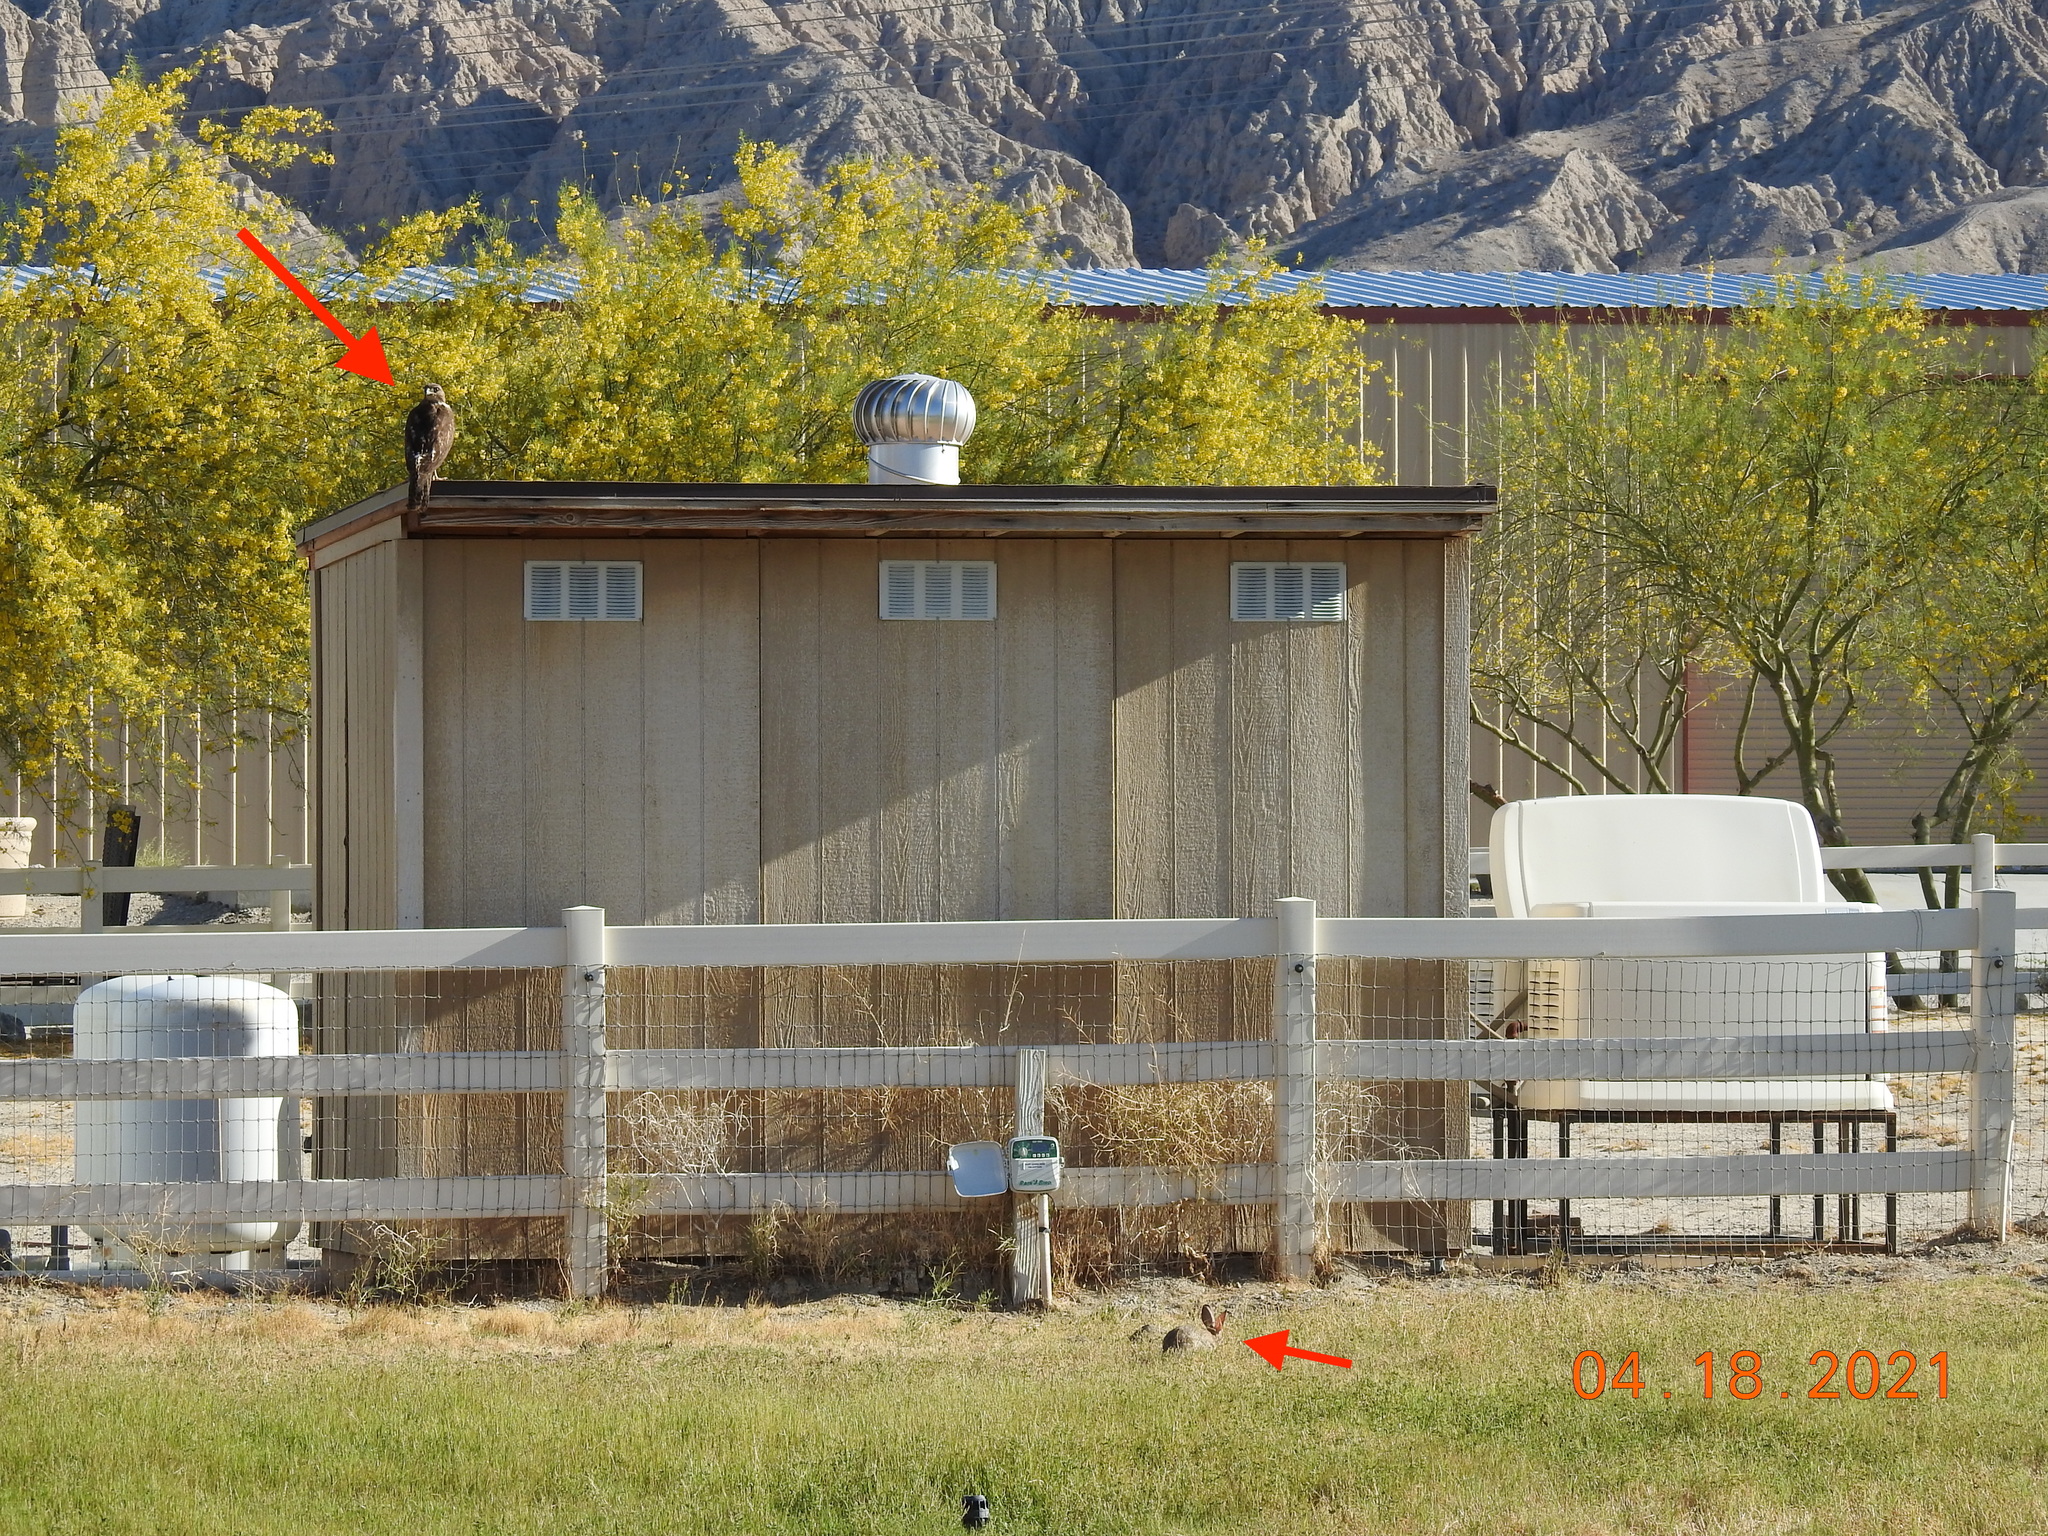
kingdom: Animalia
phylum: Chordata
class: Aves
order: Accipitriformes
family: Accipitridae
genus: Buteo
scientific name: Buteo jamaicensis
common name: Red-tailed hawk
